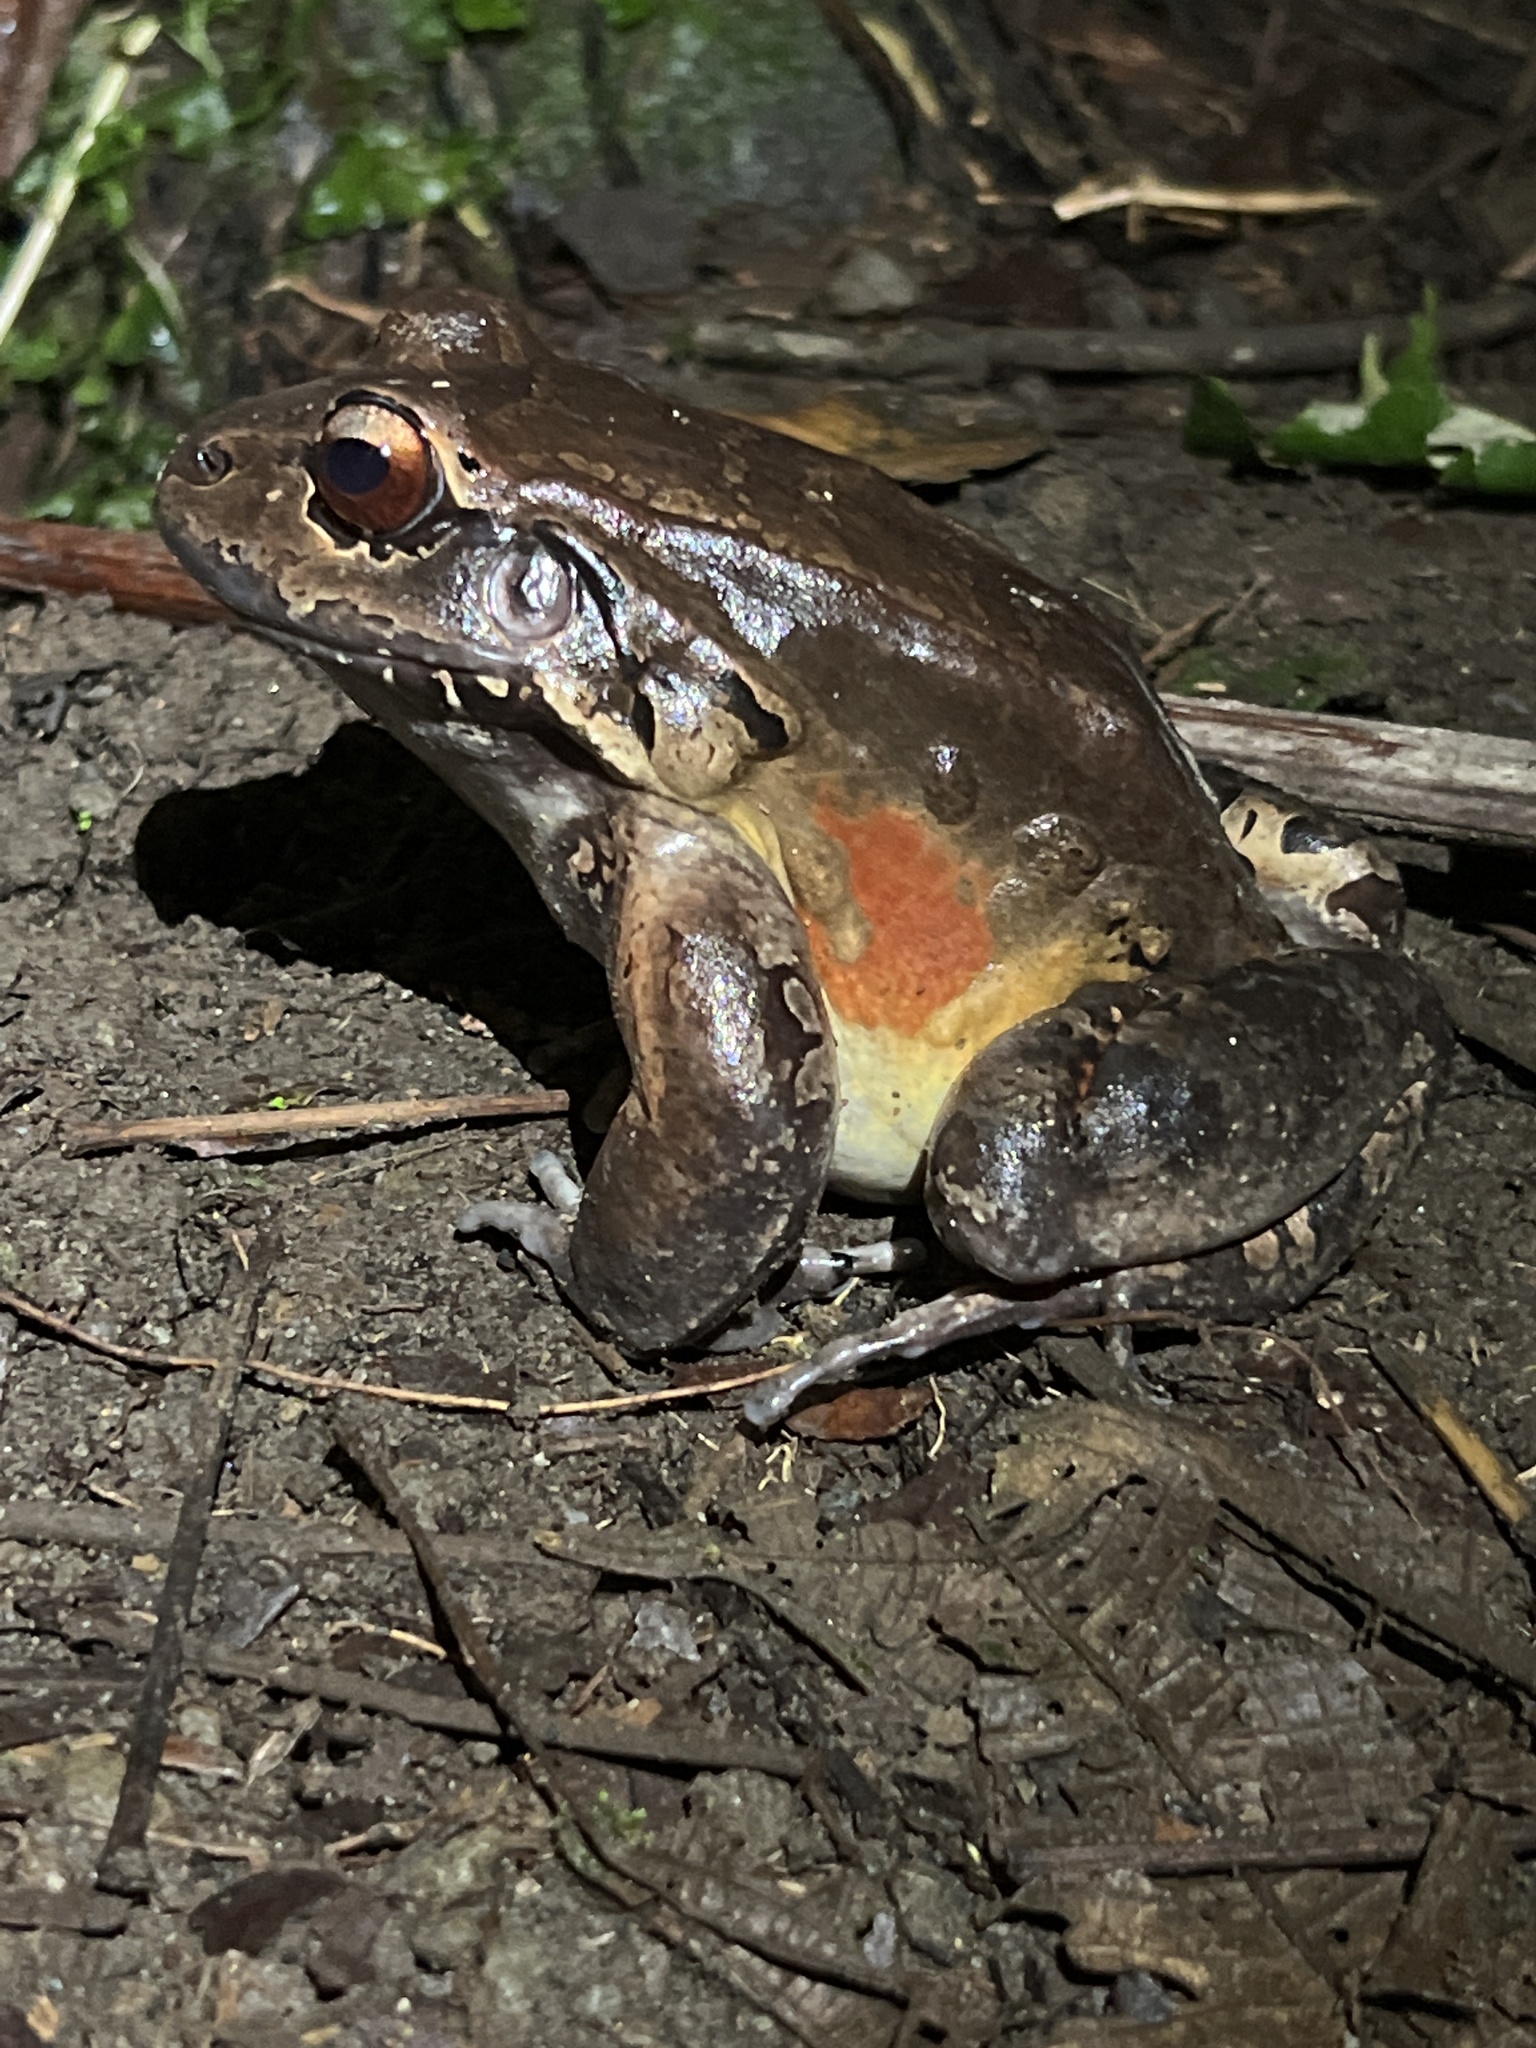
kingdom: Animalia
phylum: Chordata
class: Amphibia
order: Anura
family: Leptodactylidae
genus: Leptodactylus
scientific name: Leptodactylus savagei
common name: Savage's thin-toed frog
